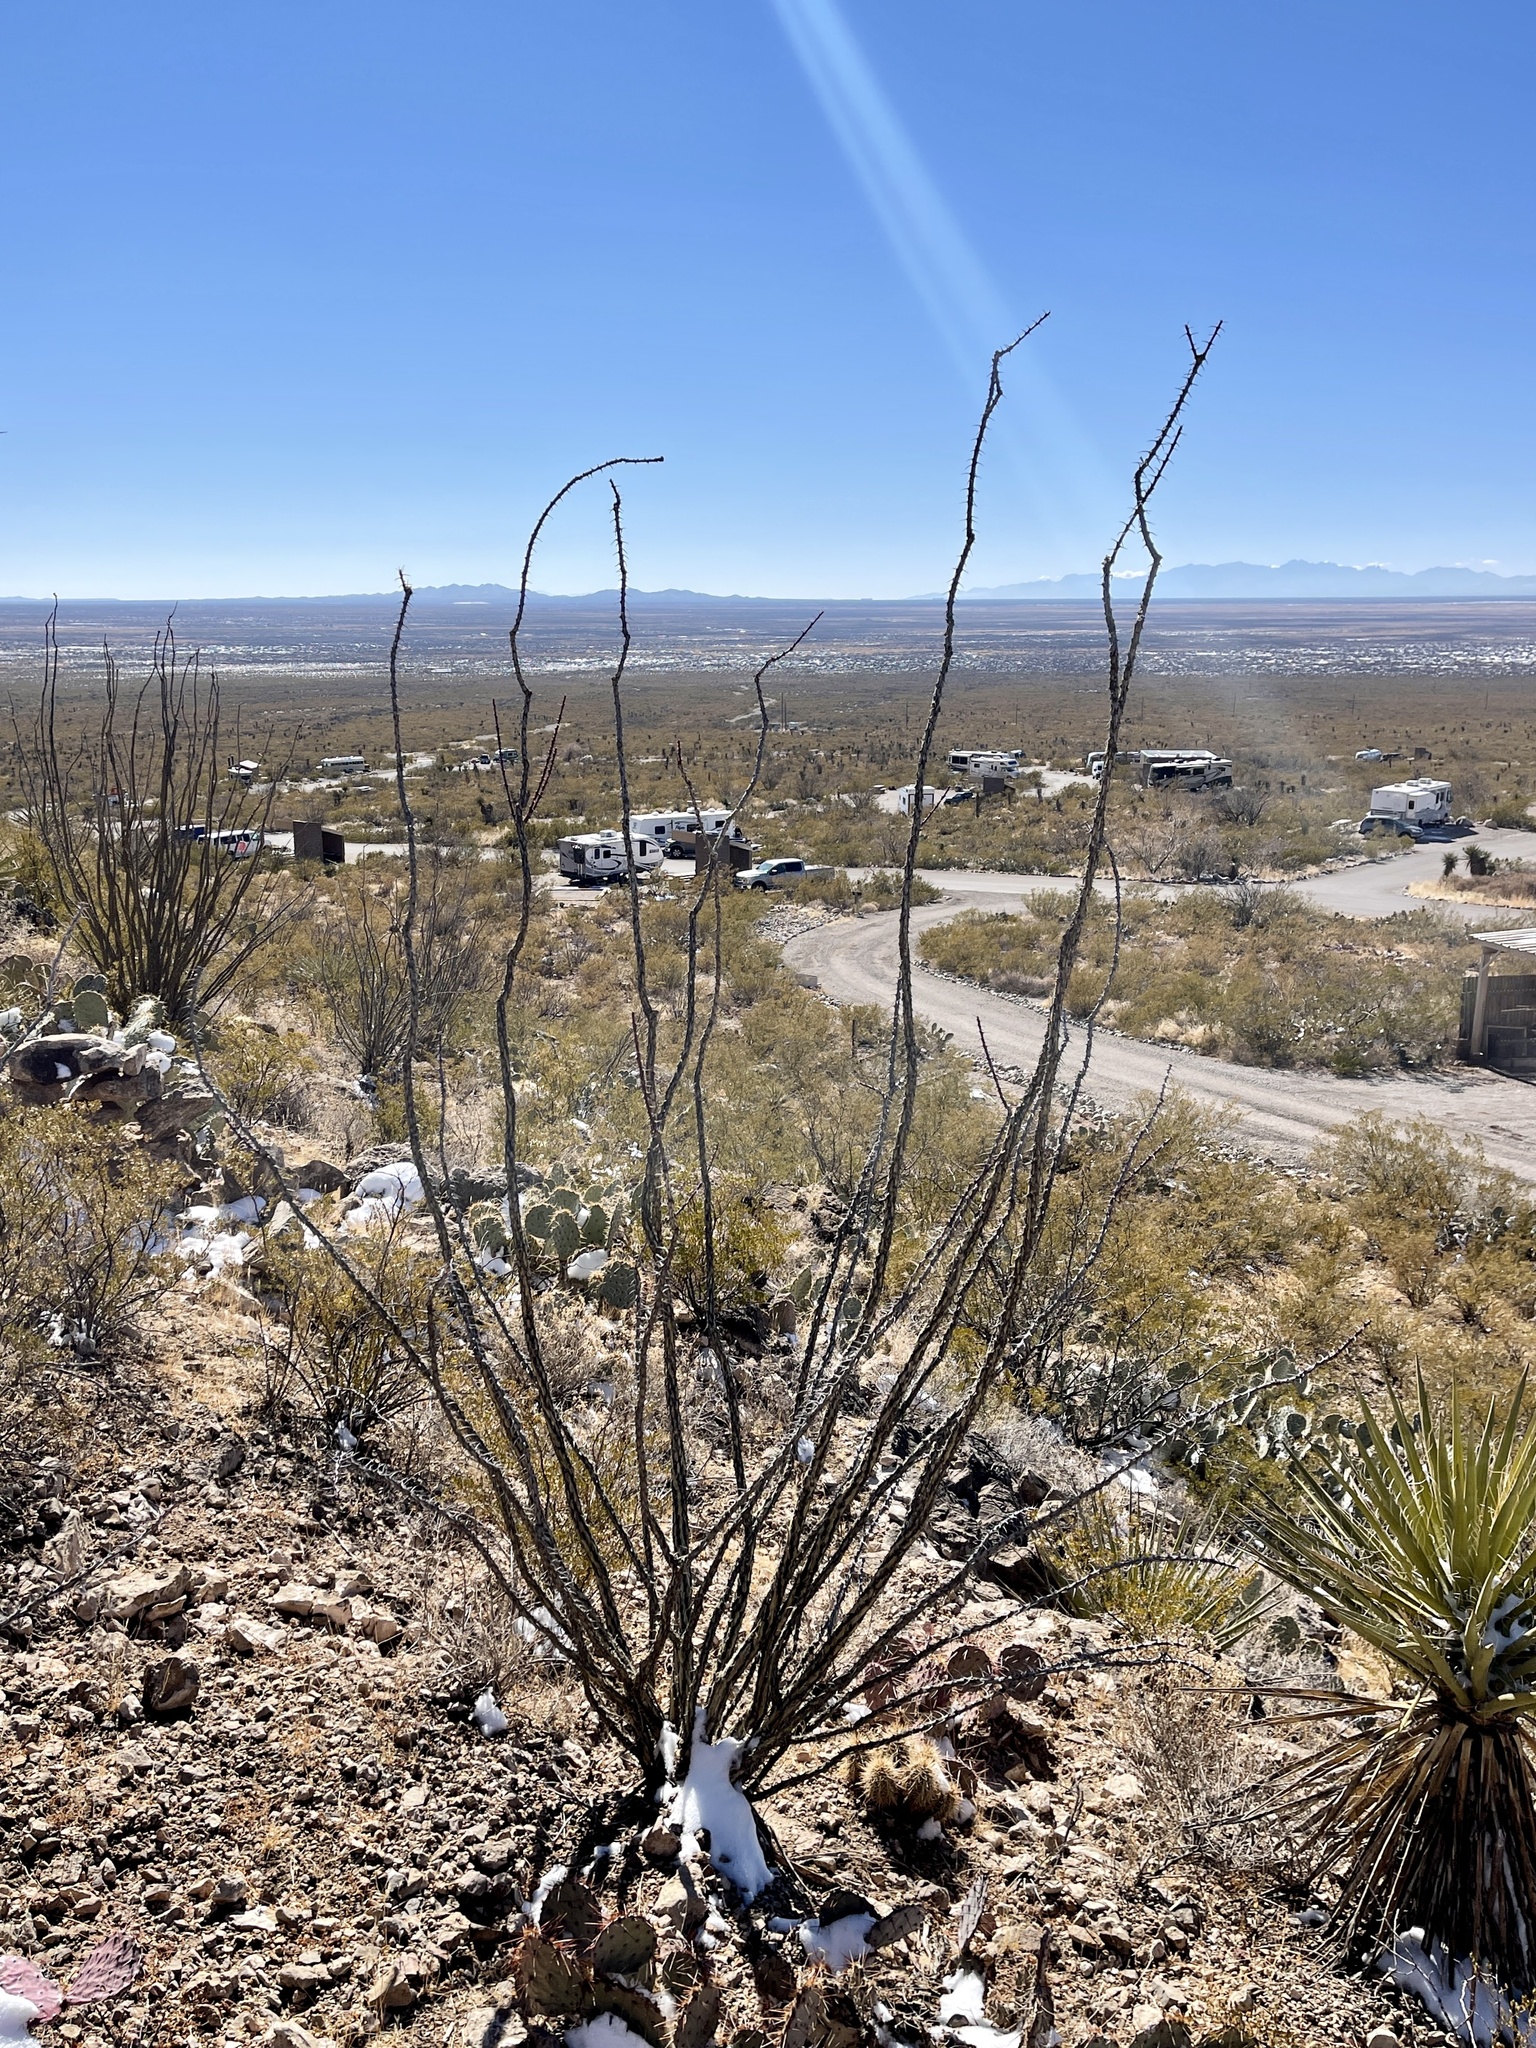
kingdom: Plantae
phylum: Tracheophyta
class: Magnoliopsida
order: Ericales
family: Fouquieriaceae
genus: Fouquieria
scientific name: Fouquieria splendens
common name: Vine-cactus
